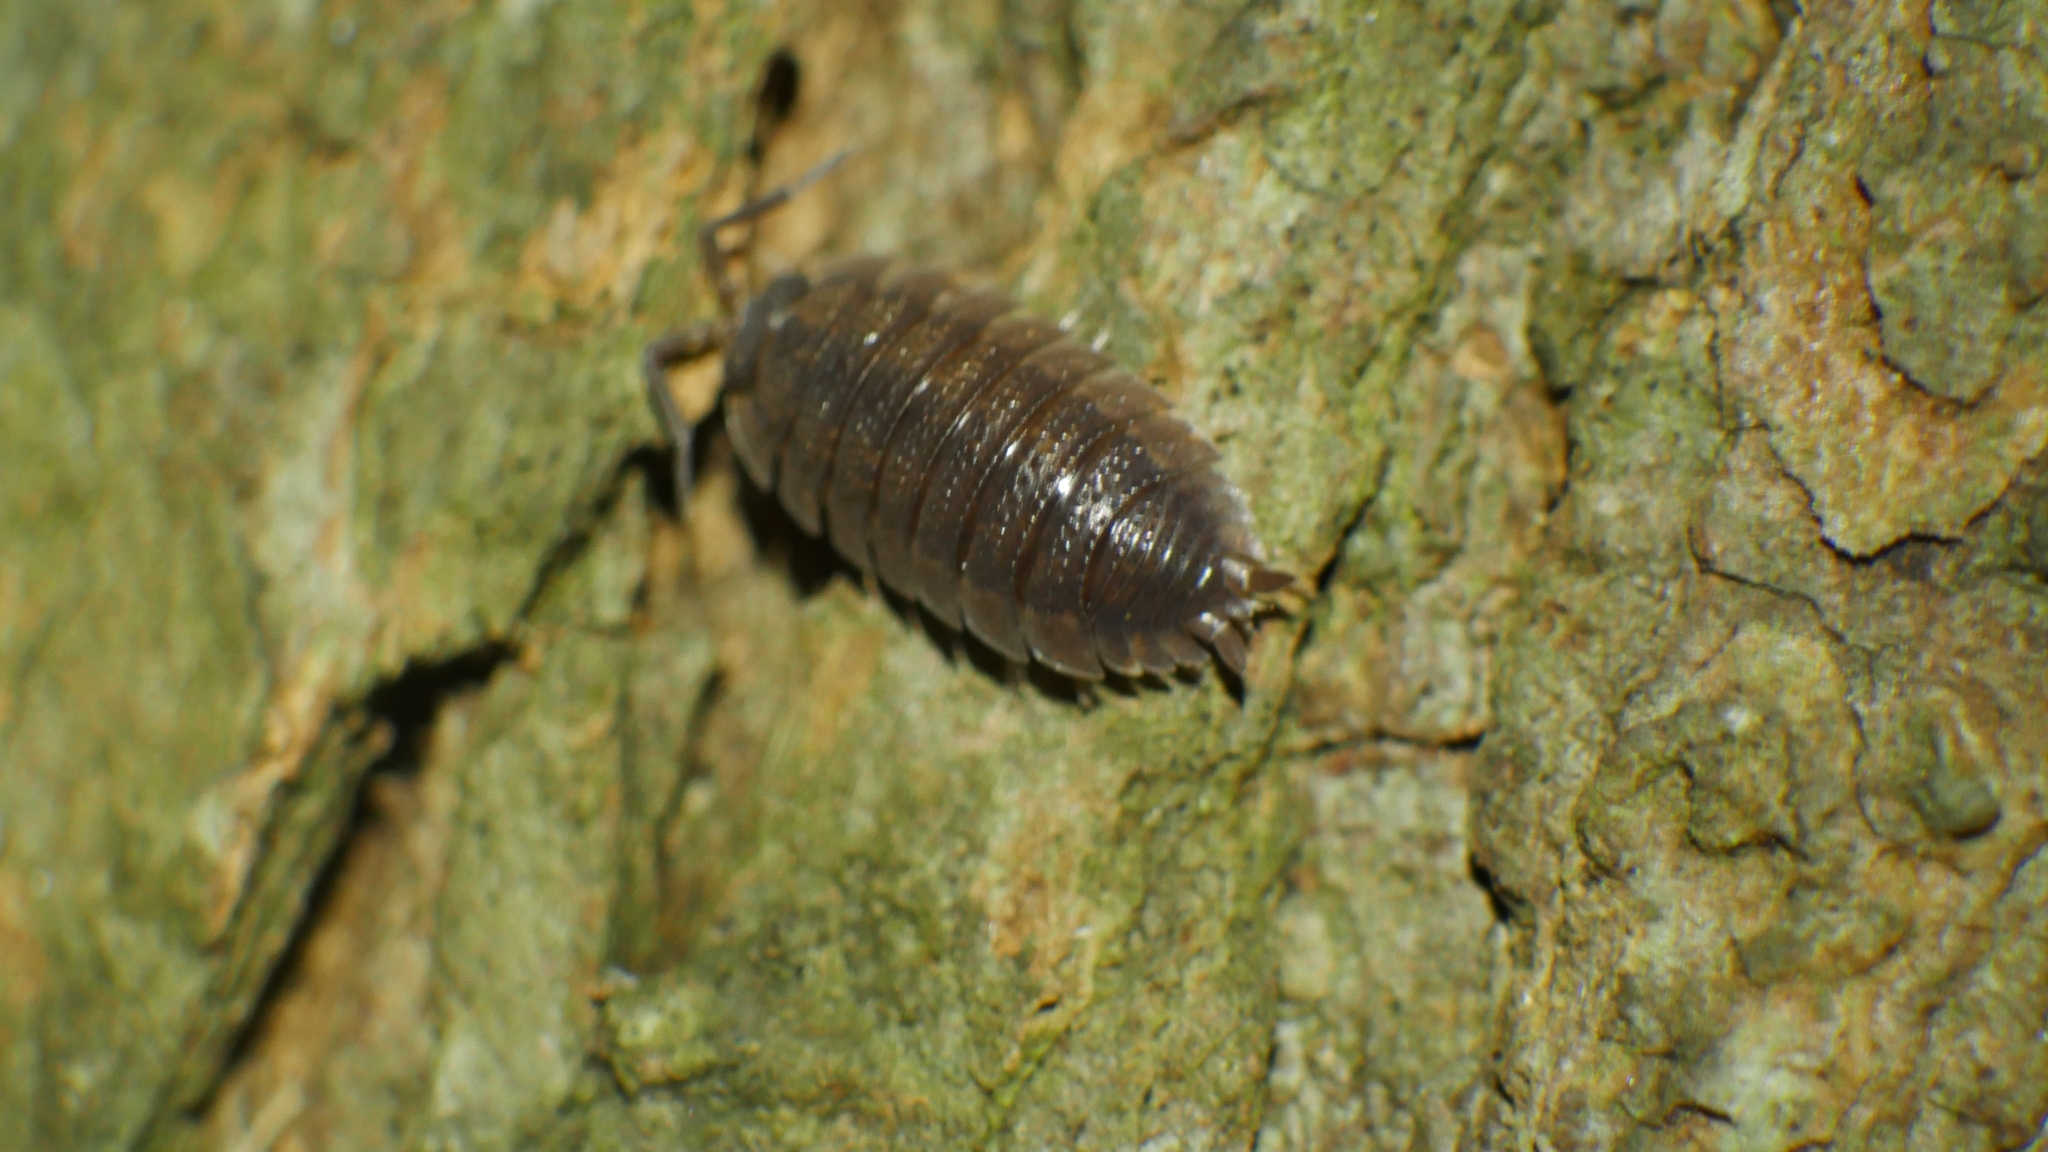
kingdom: Animalia
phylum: Arthropoda
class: Malacostraca
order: Isopoda
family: Porcellionidae
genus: Porcellio
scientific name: Porcellio scaber
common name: Common rough woodlouse
